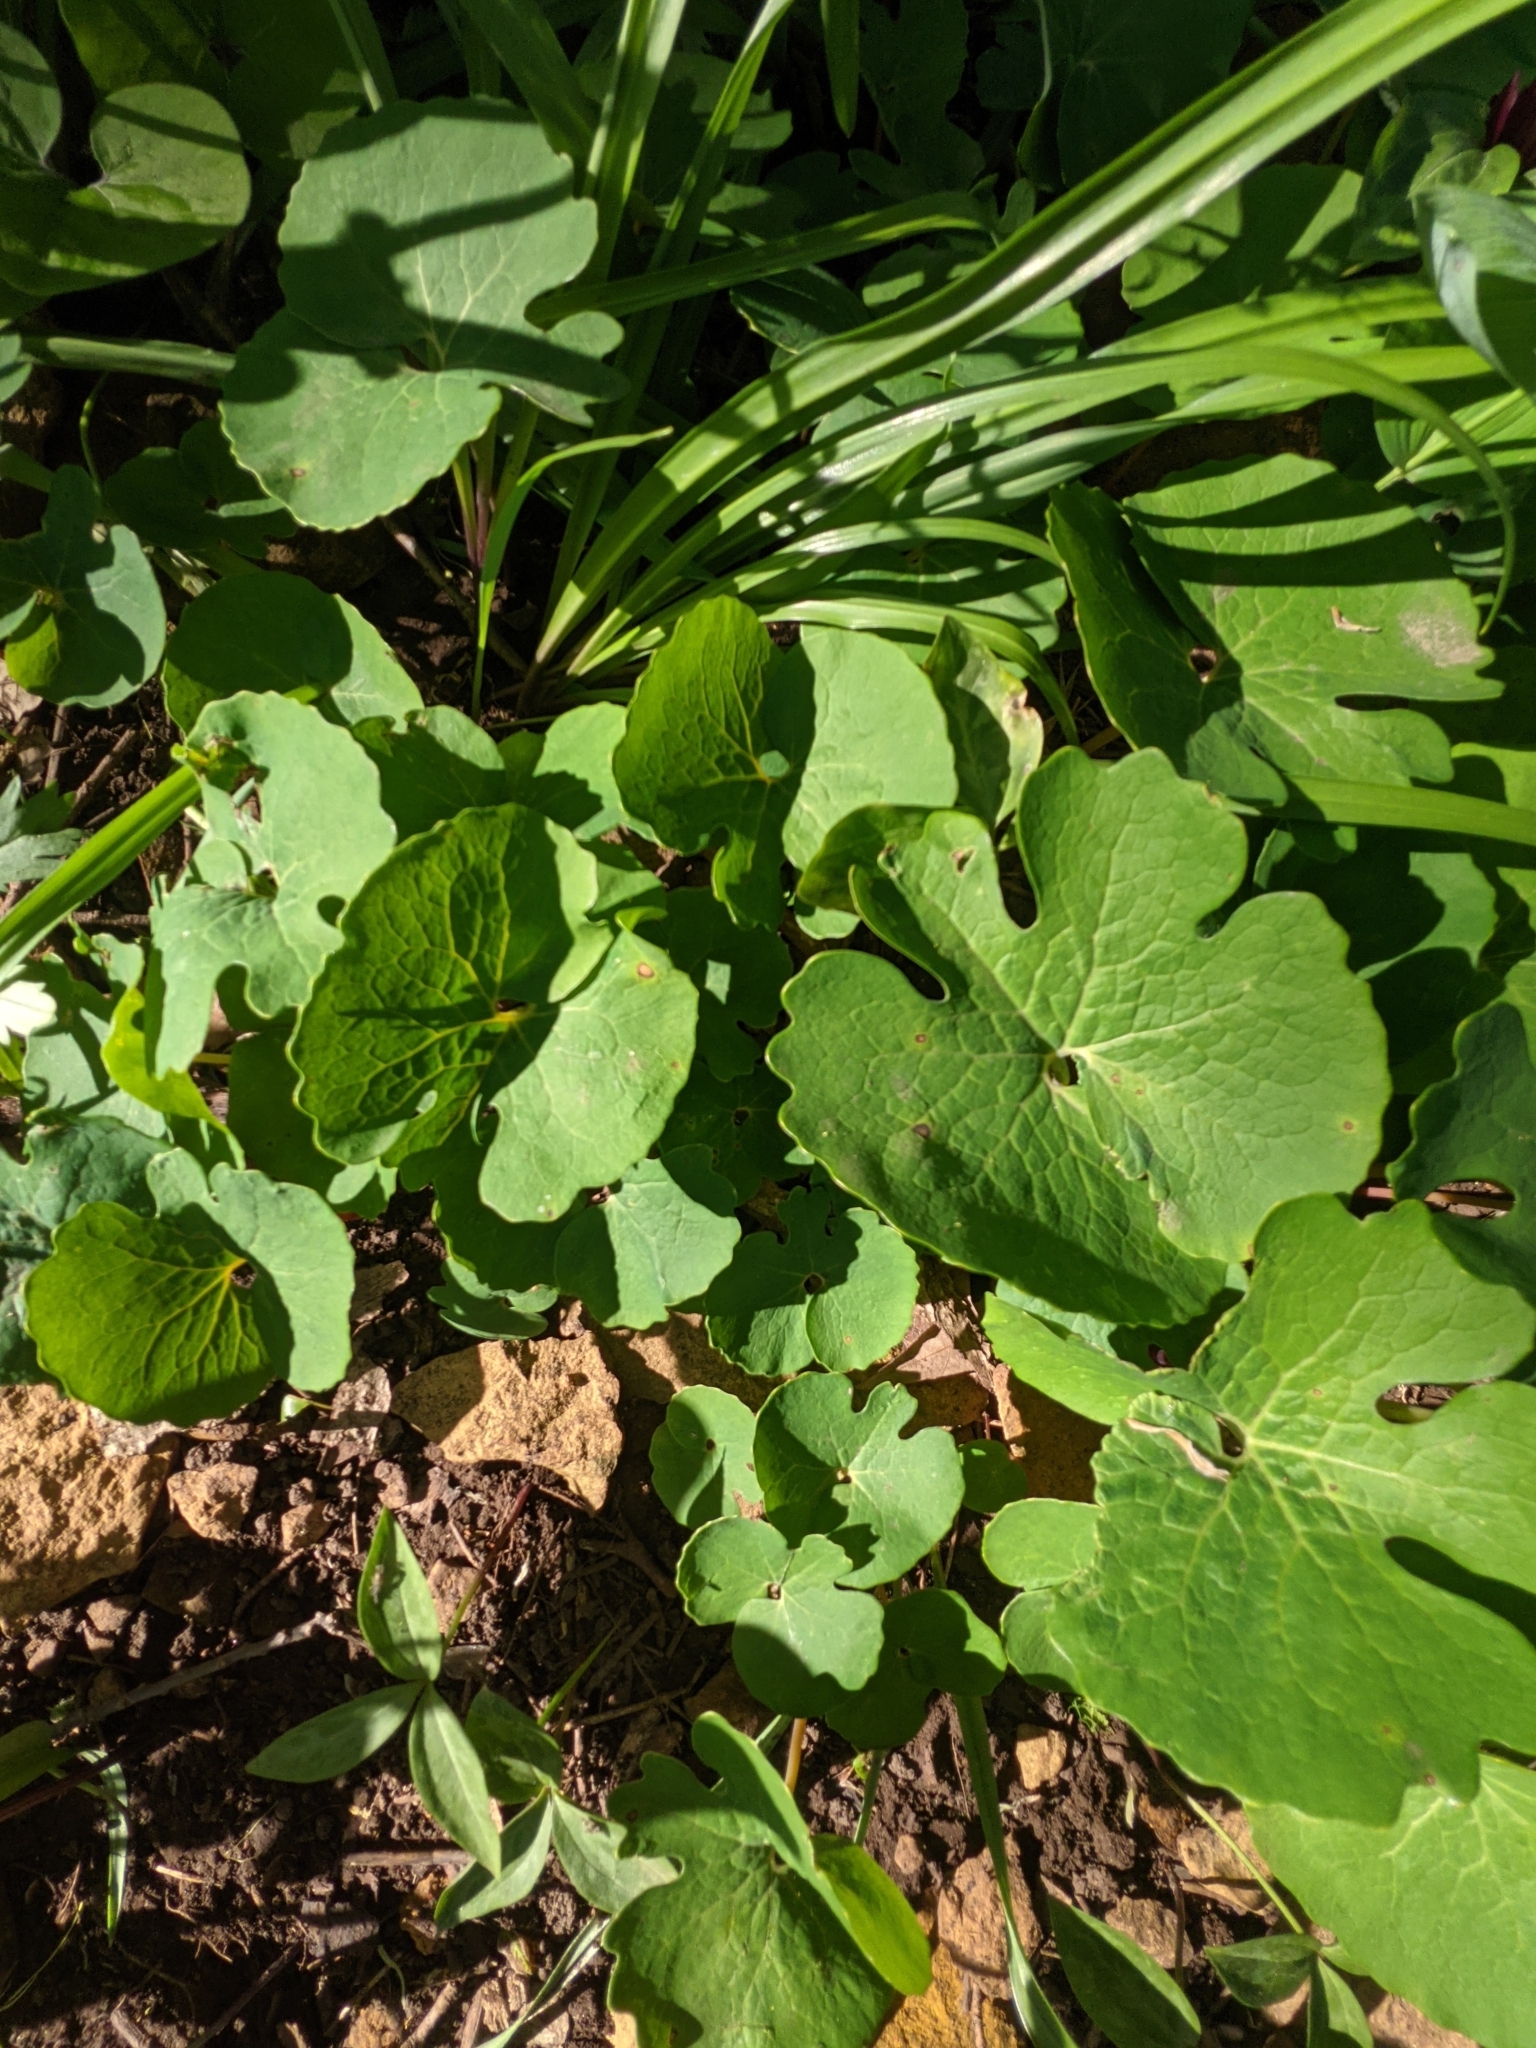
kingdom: Plantae
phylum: Tracheophyta
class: Magnoliopsida
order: Ranunculales
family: Papaveraceae
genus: Sanguinaria
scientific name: Sanguinaria canadensis
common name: Bloodroot
